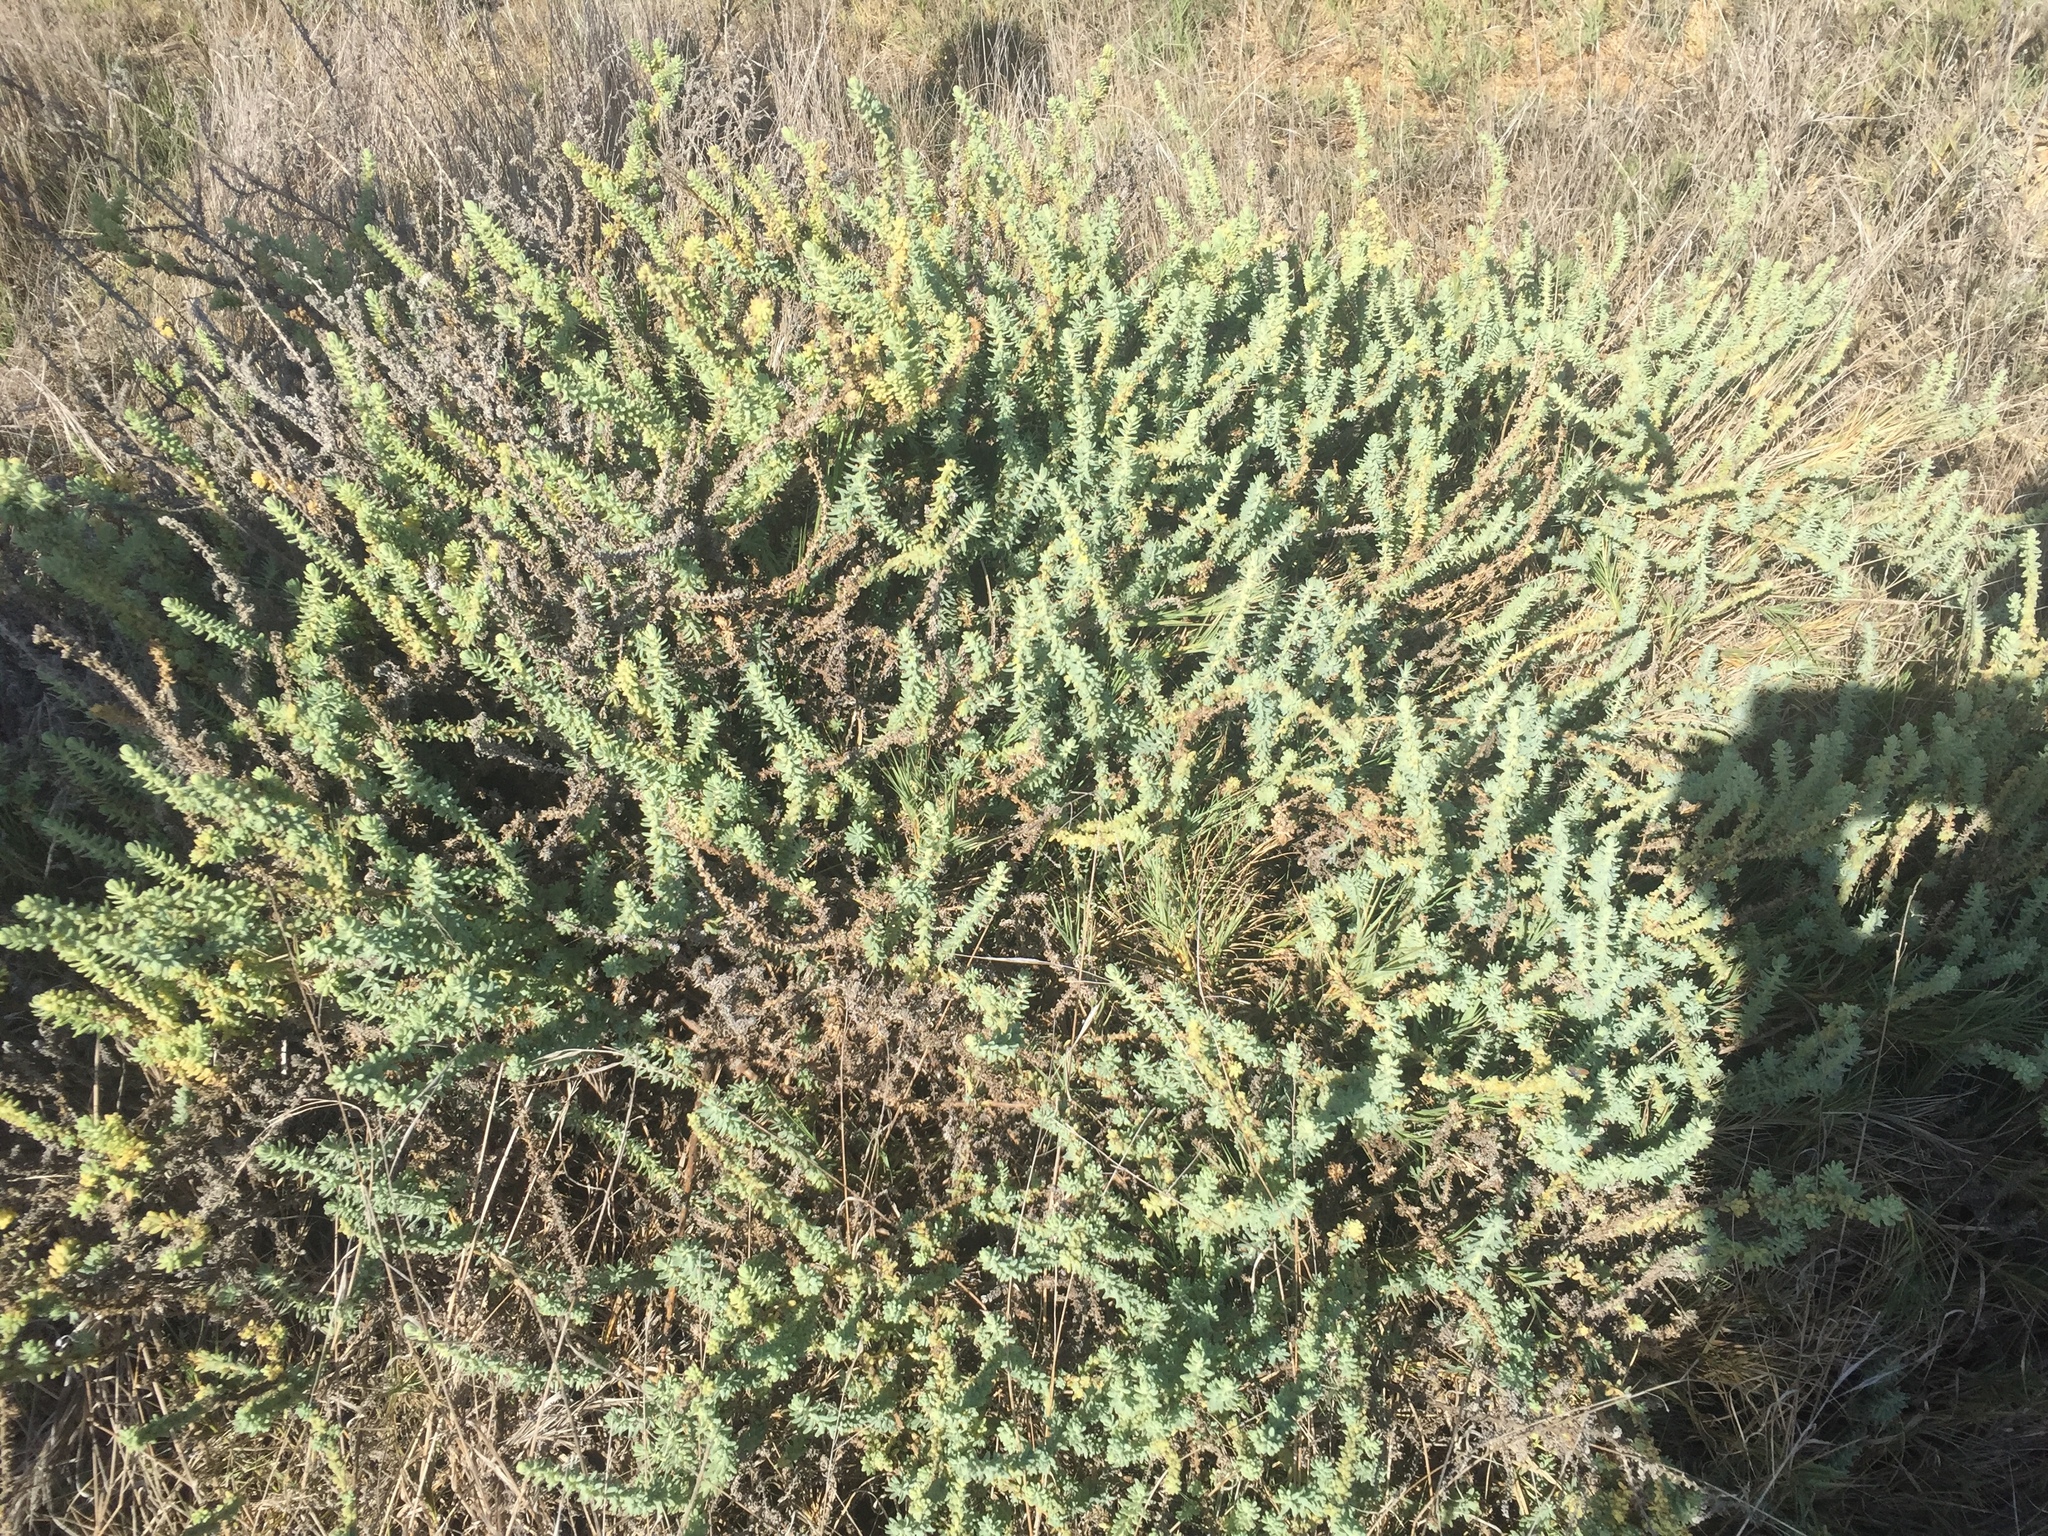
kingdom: Plantae
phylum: Tracheophyta
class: Magnoliopsida
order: Caryophyllales
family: Amaranthaceae
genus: Suaeda
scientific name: Suaeda taxifolia
